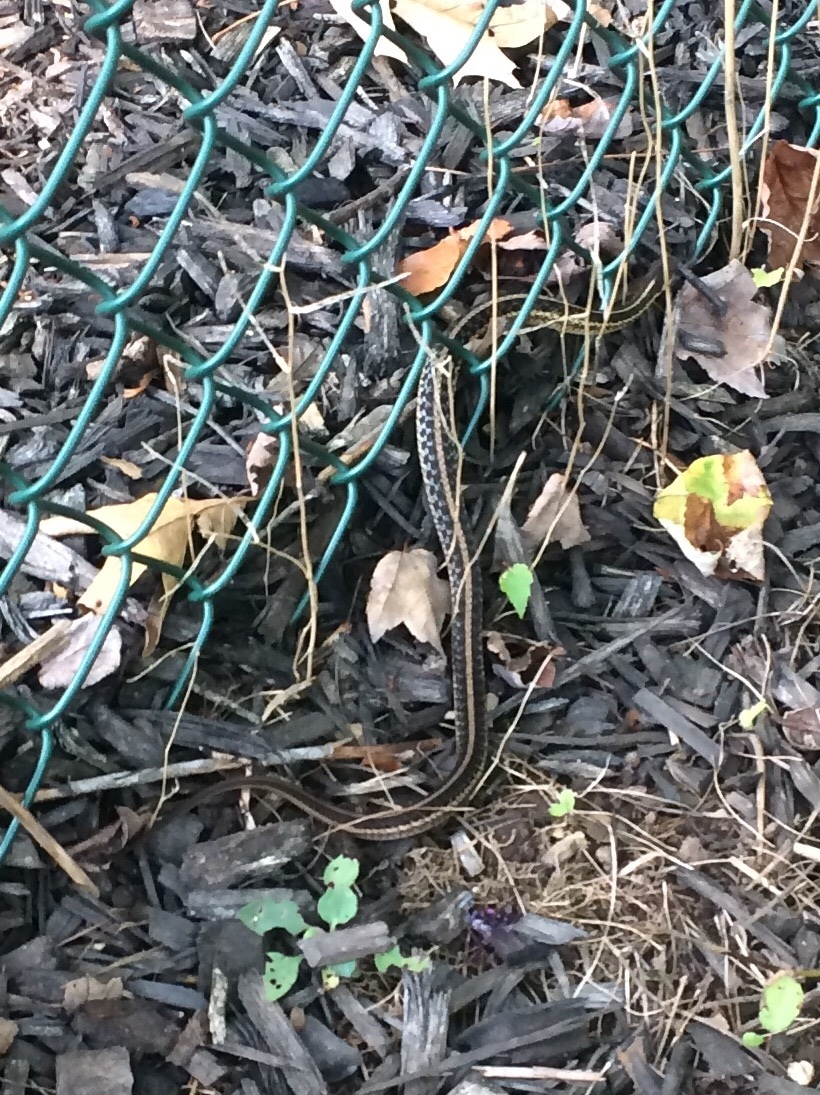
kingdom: Animalia
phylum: Chordata
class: Squamata
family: Colubridae
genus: Thamnophis
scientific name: Thamnophis sirtalis
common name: Common garter snake
